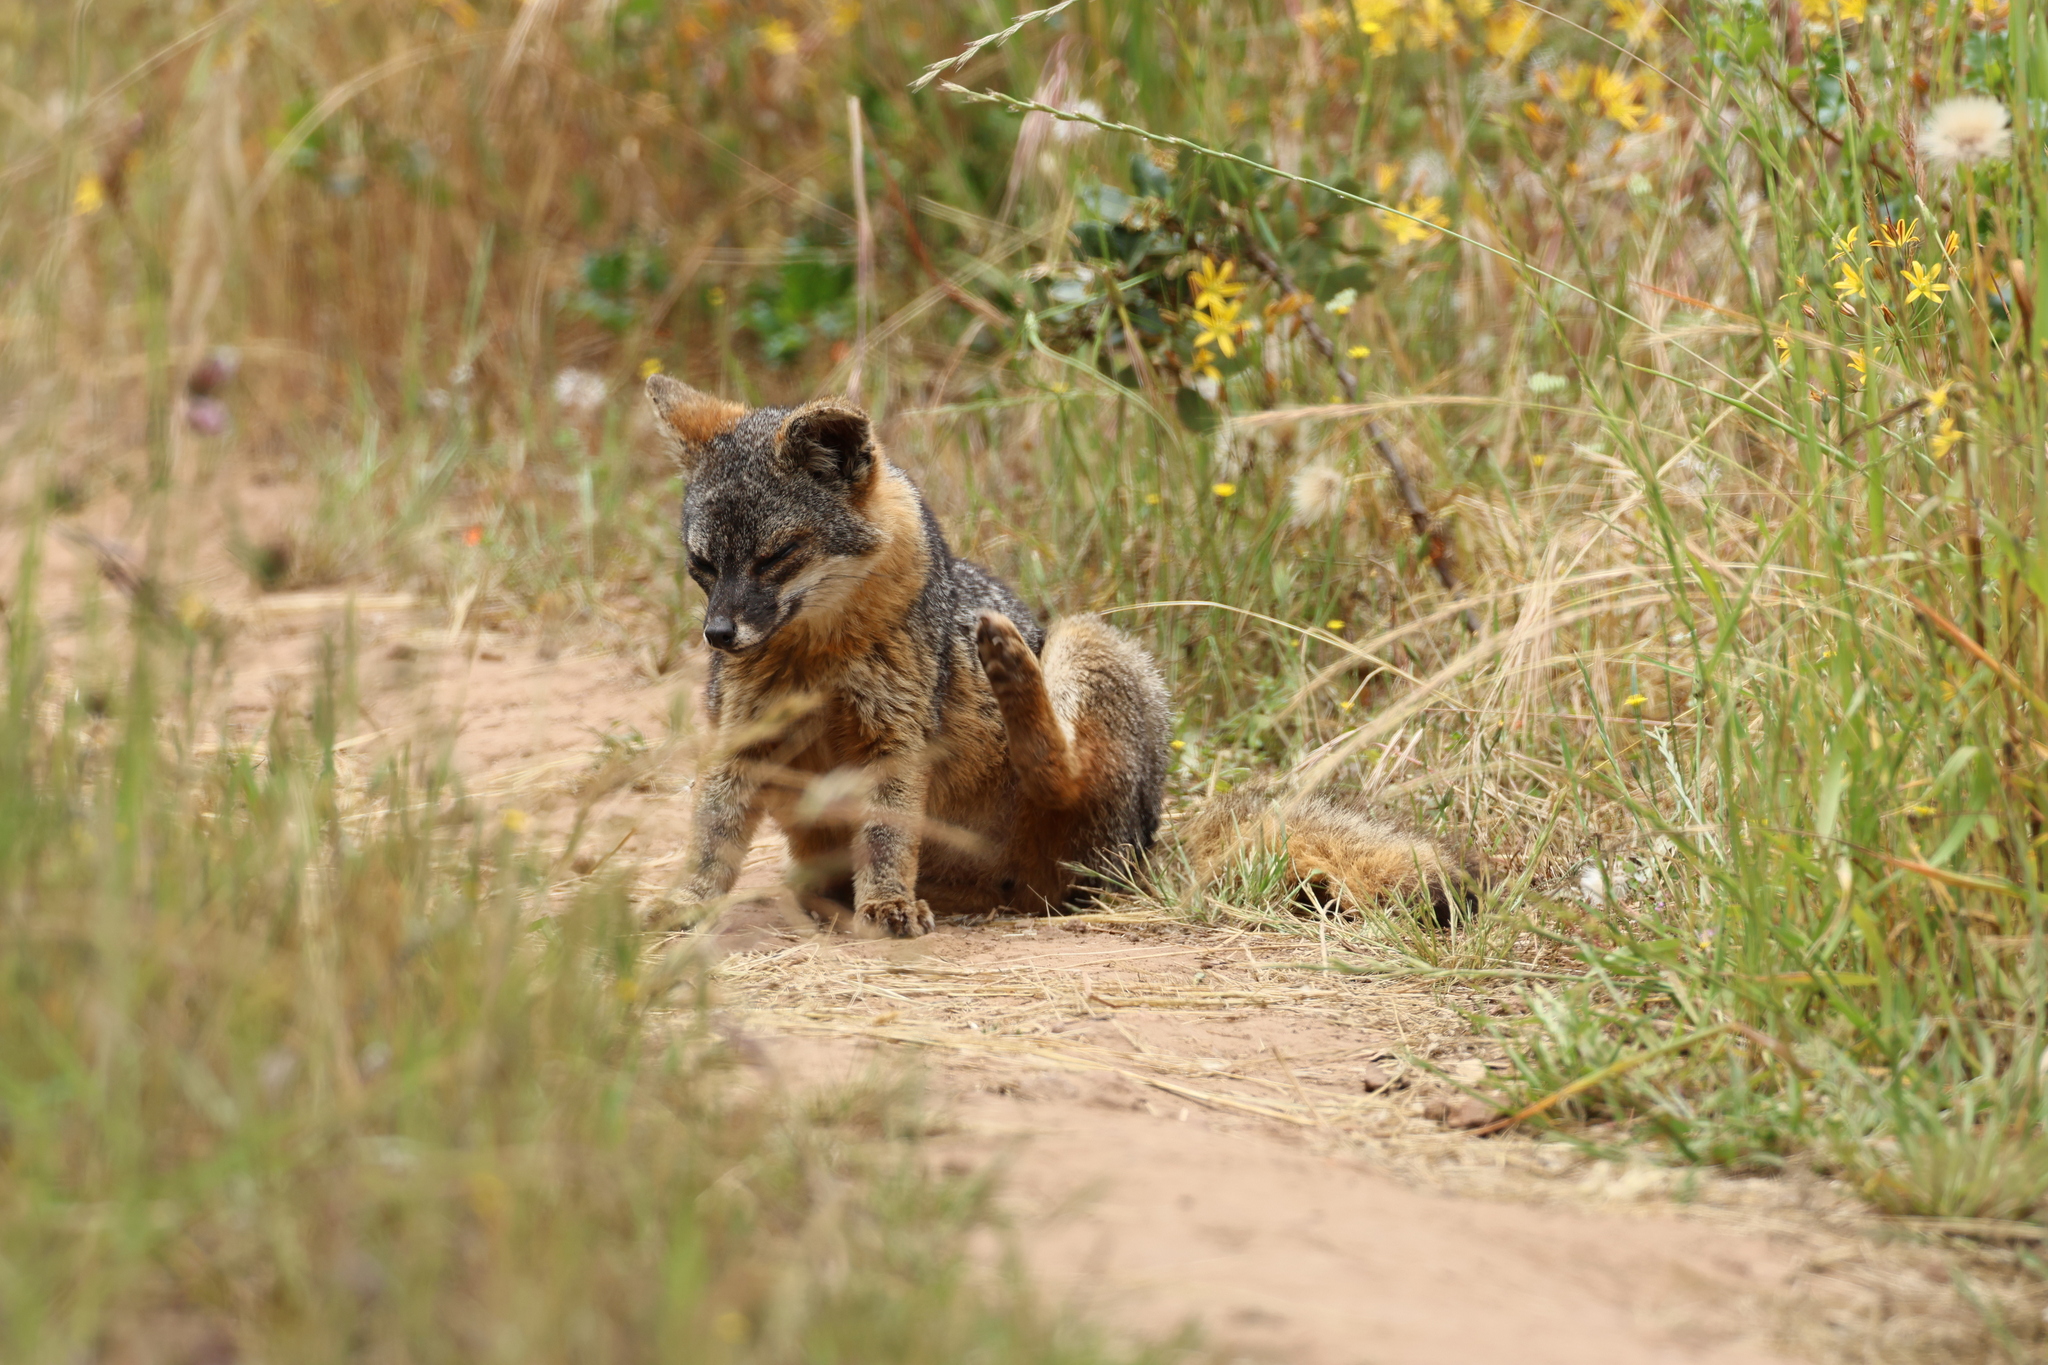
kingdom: Animalia
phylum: Chordata
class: Mammalia
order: Carnivora
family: Canidae
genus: Urocyon
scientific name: Urocyon littoralis
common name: Island gray fox
